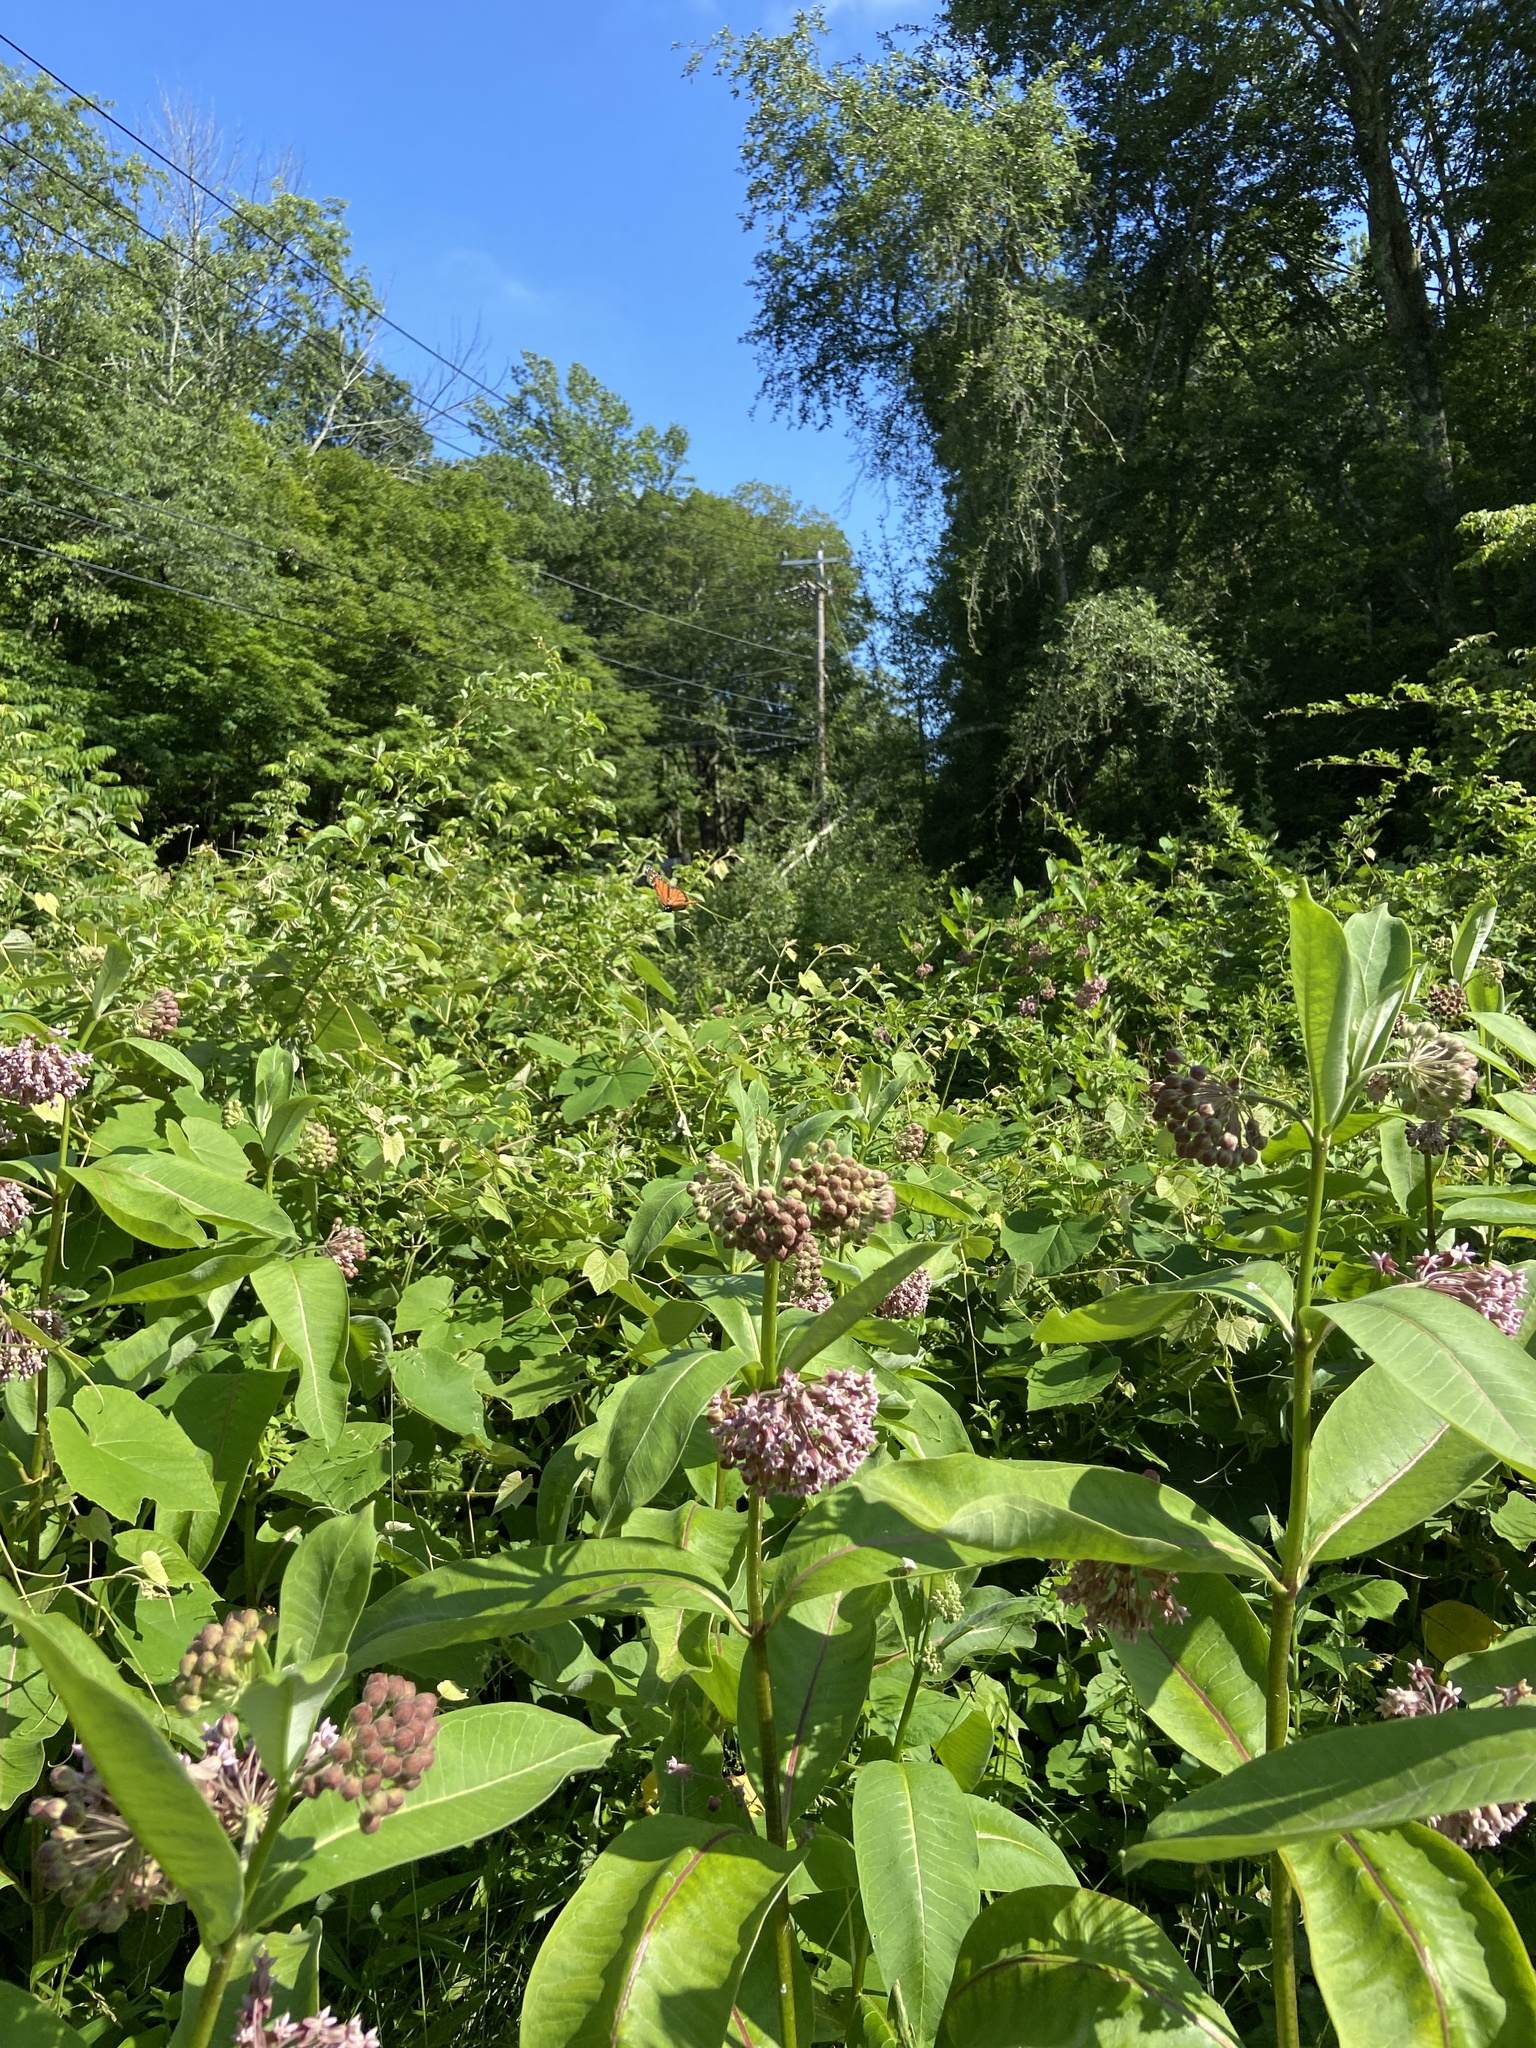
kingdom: Plantae
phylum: Tracheophyta
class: Magnoliopsida
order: Gentianales
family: Apocynaceae
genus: Asclepias
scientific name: Asclepias syriaca
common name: Common milkweed
